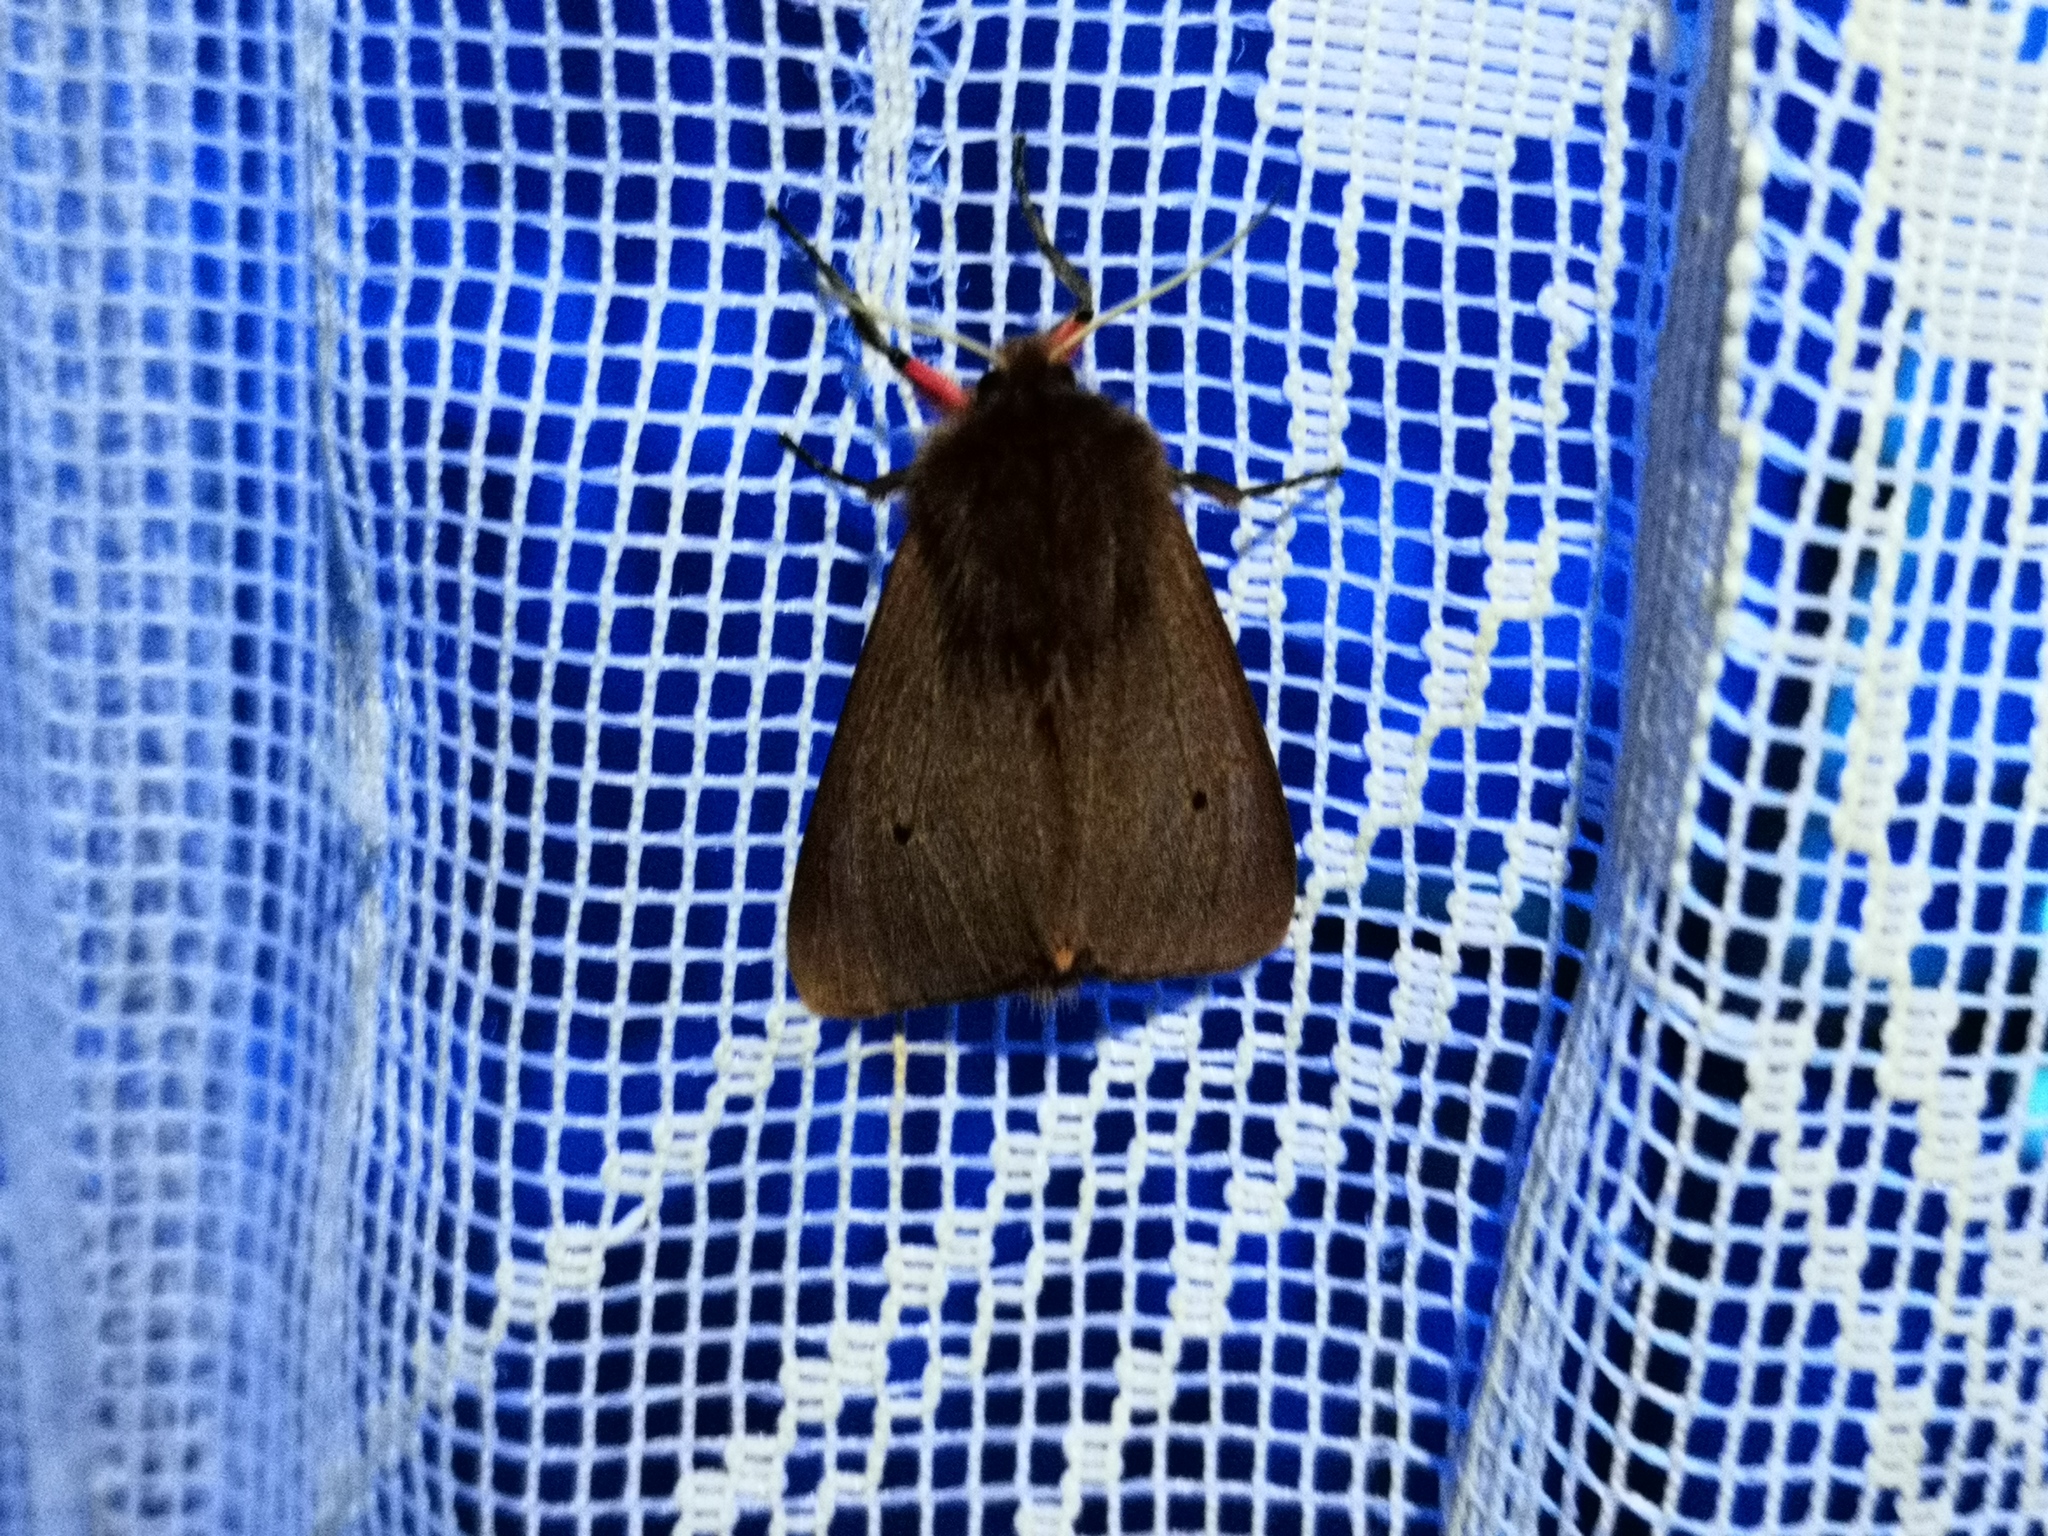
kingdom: Animalia
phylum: Arthropoda
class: Insecta
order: Lepidoptera
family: Erebidae
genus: Phragmatobia
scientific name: Phragmatobia fuliginosa
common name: Ruby tiger
